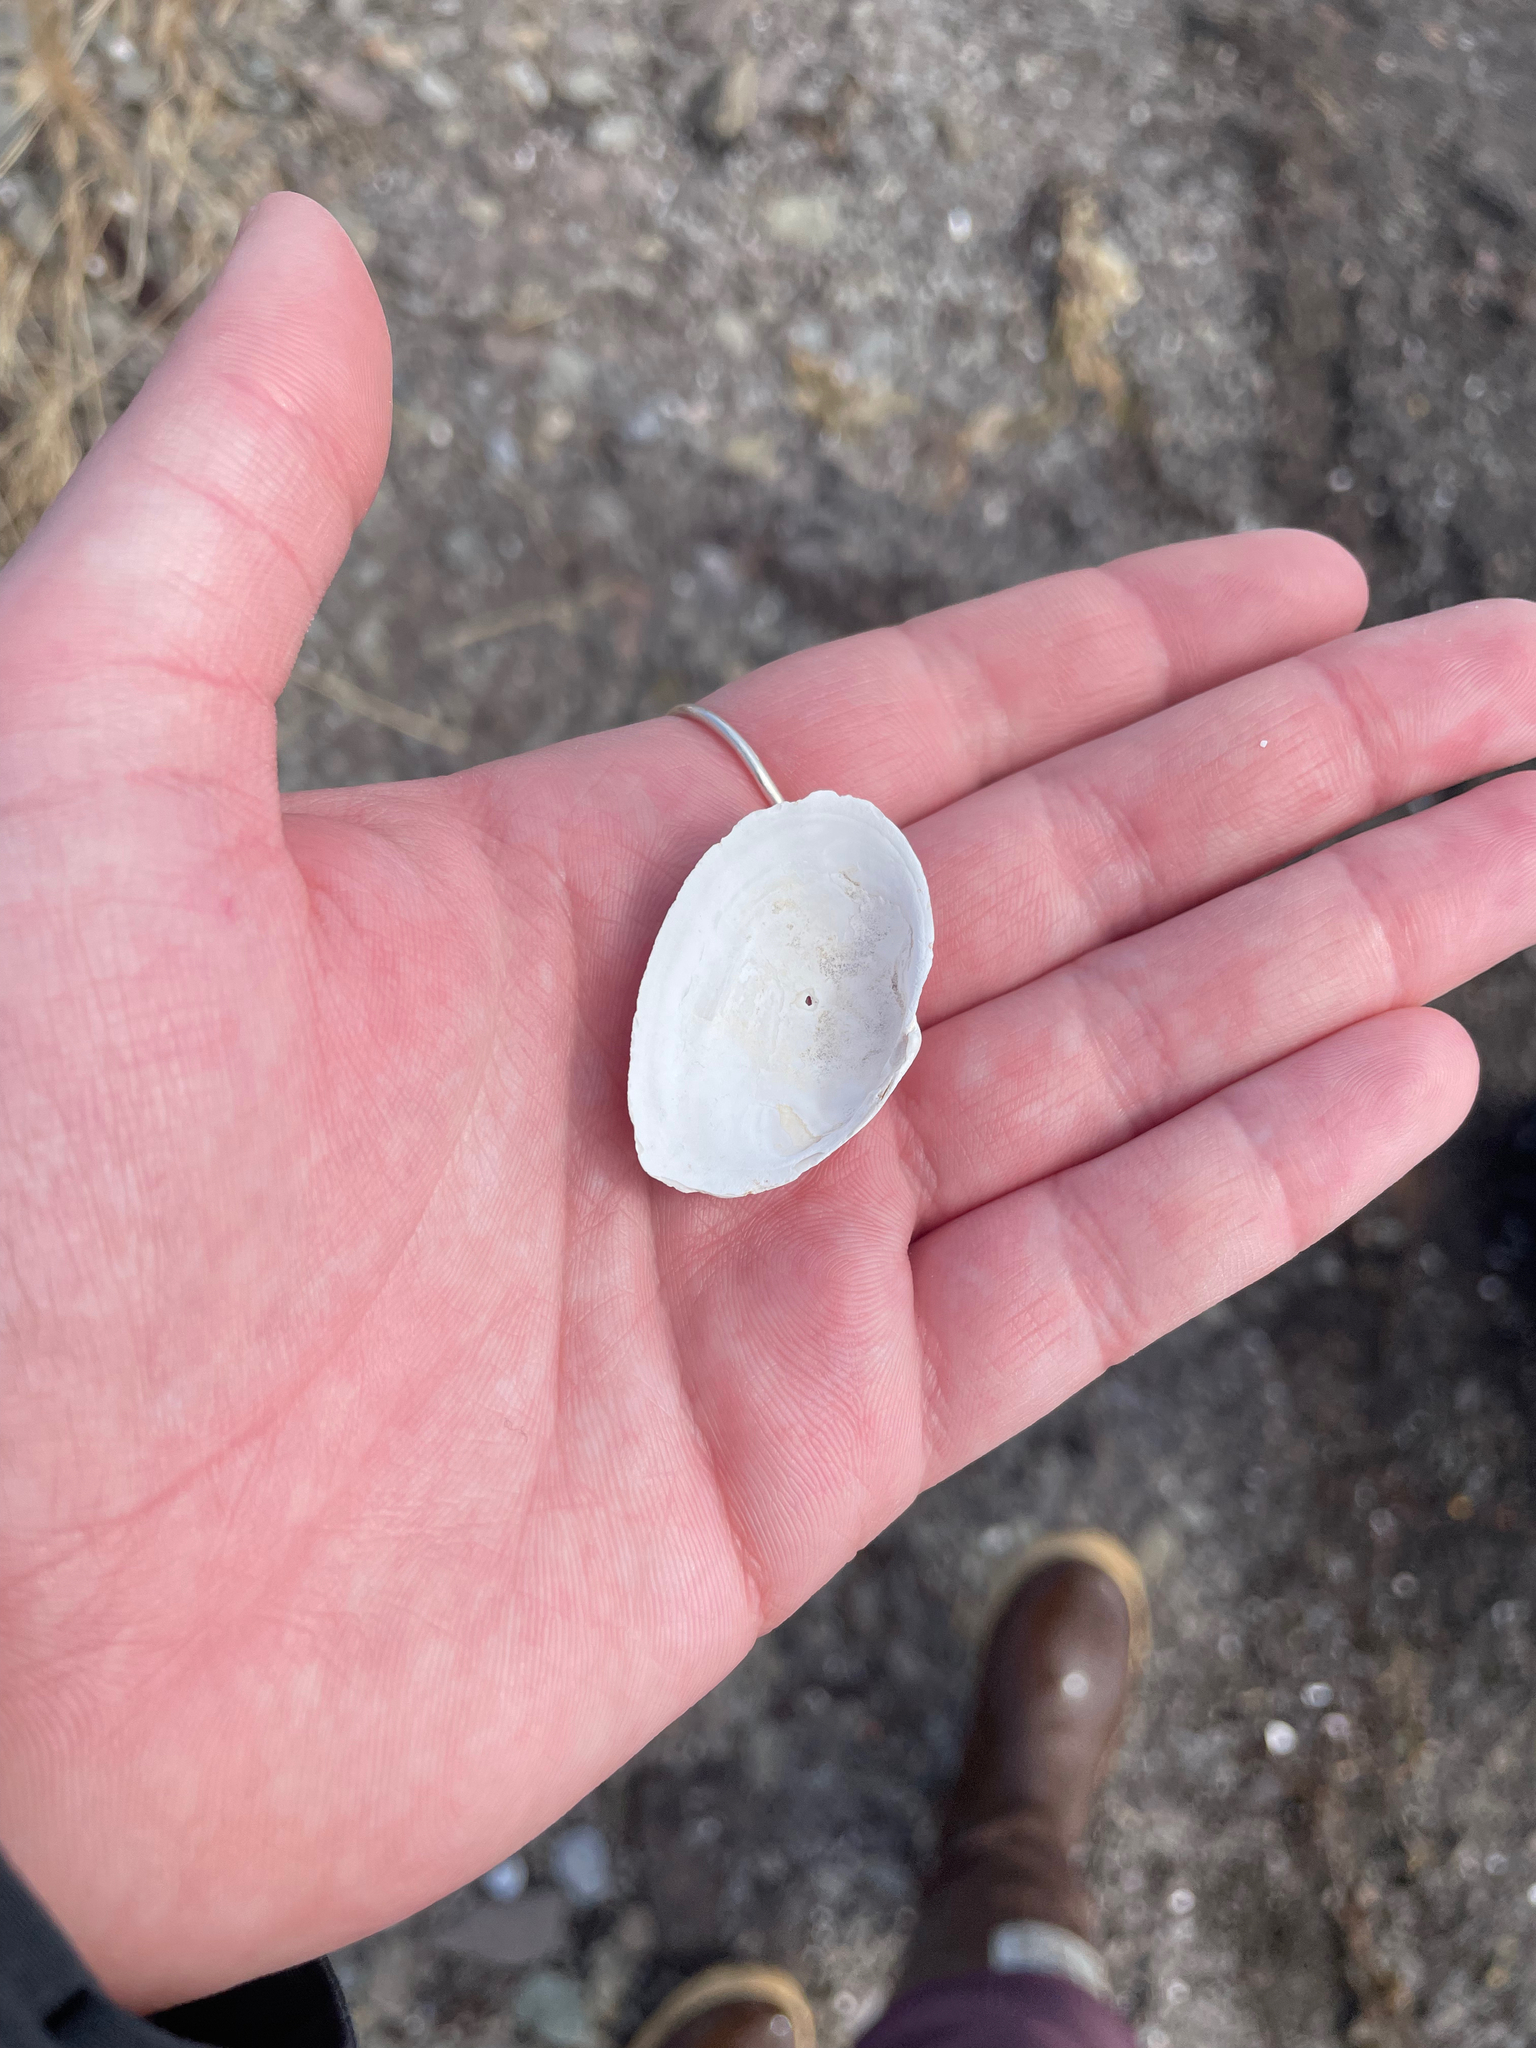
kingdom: Animalia
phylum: Mollusca
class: Bivalvia
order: Myida
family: Myidae
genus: Mya
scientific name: Mya arenaria
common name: Soft-shelled clam
